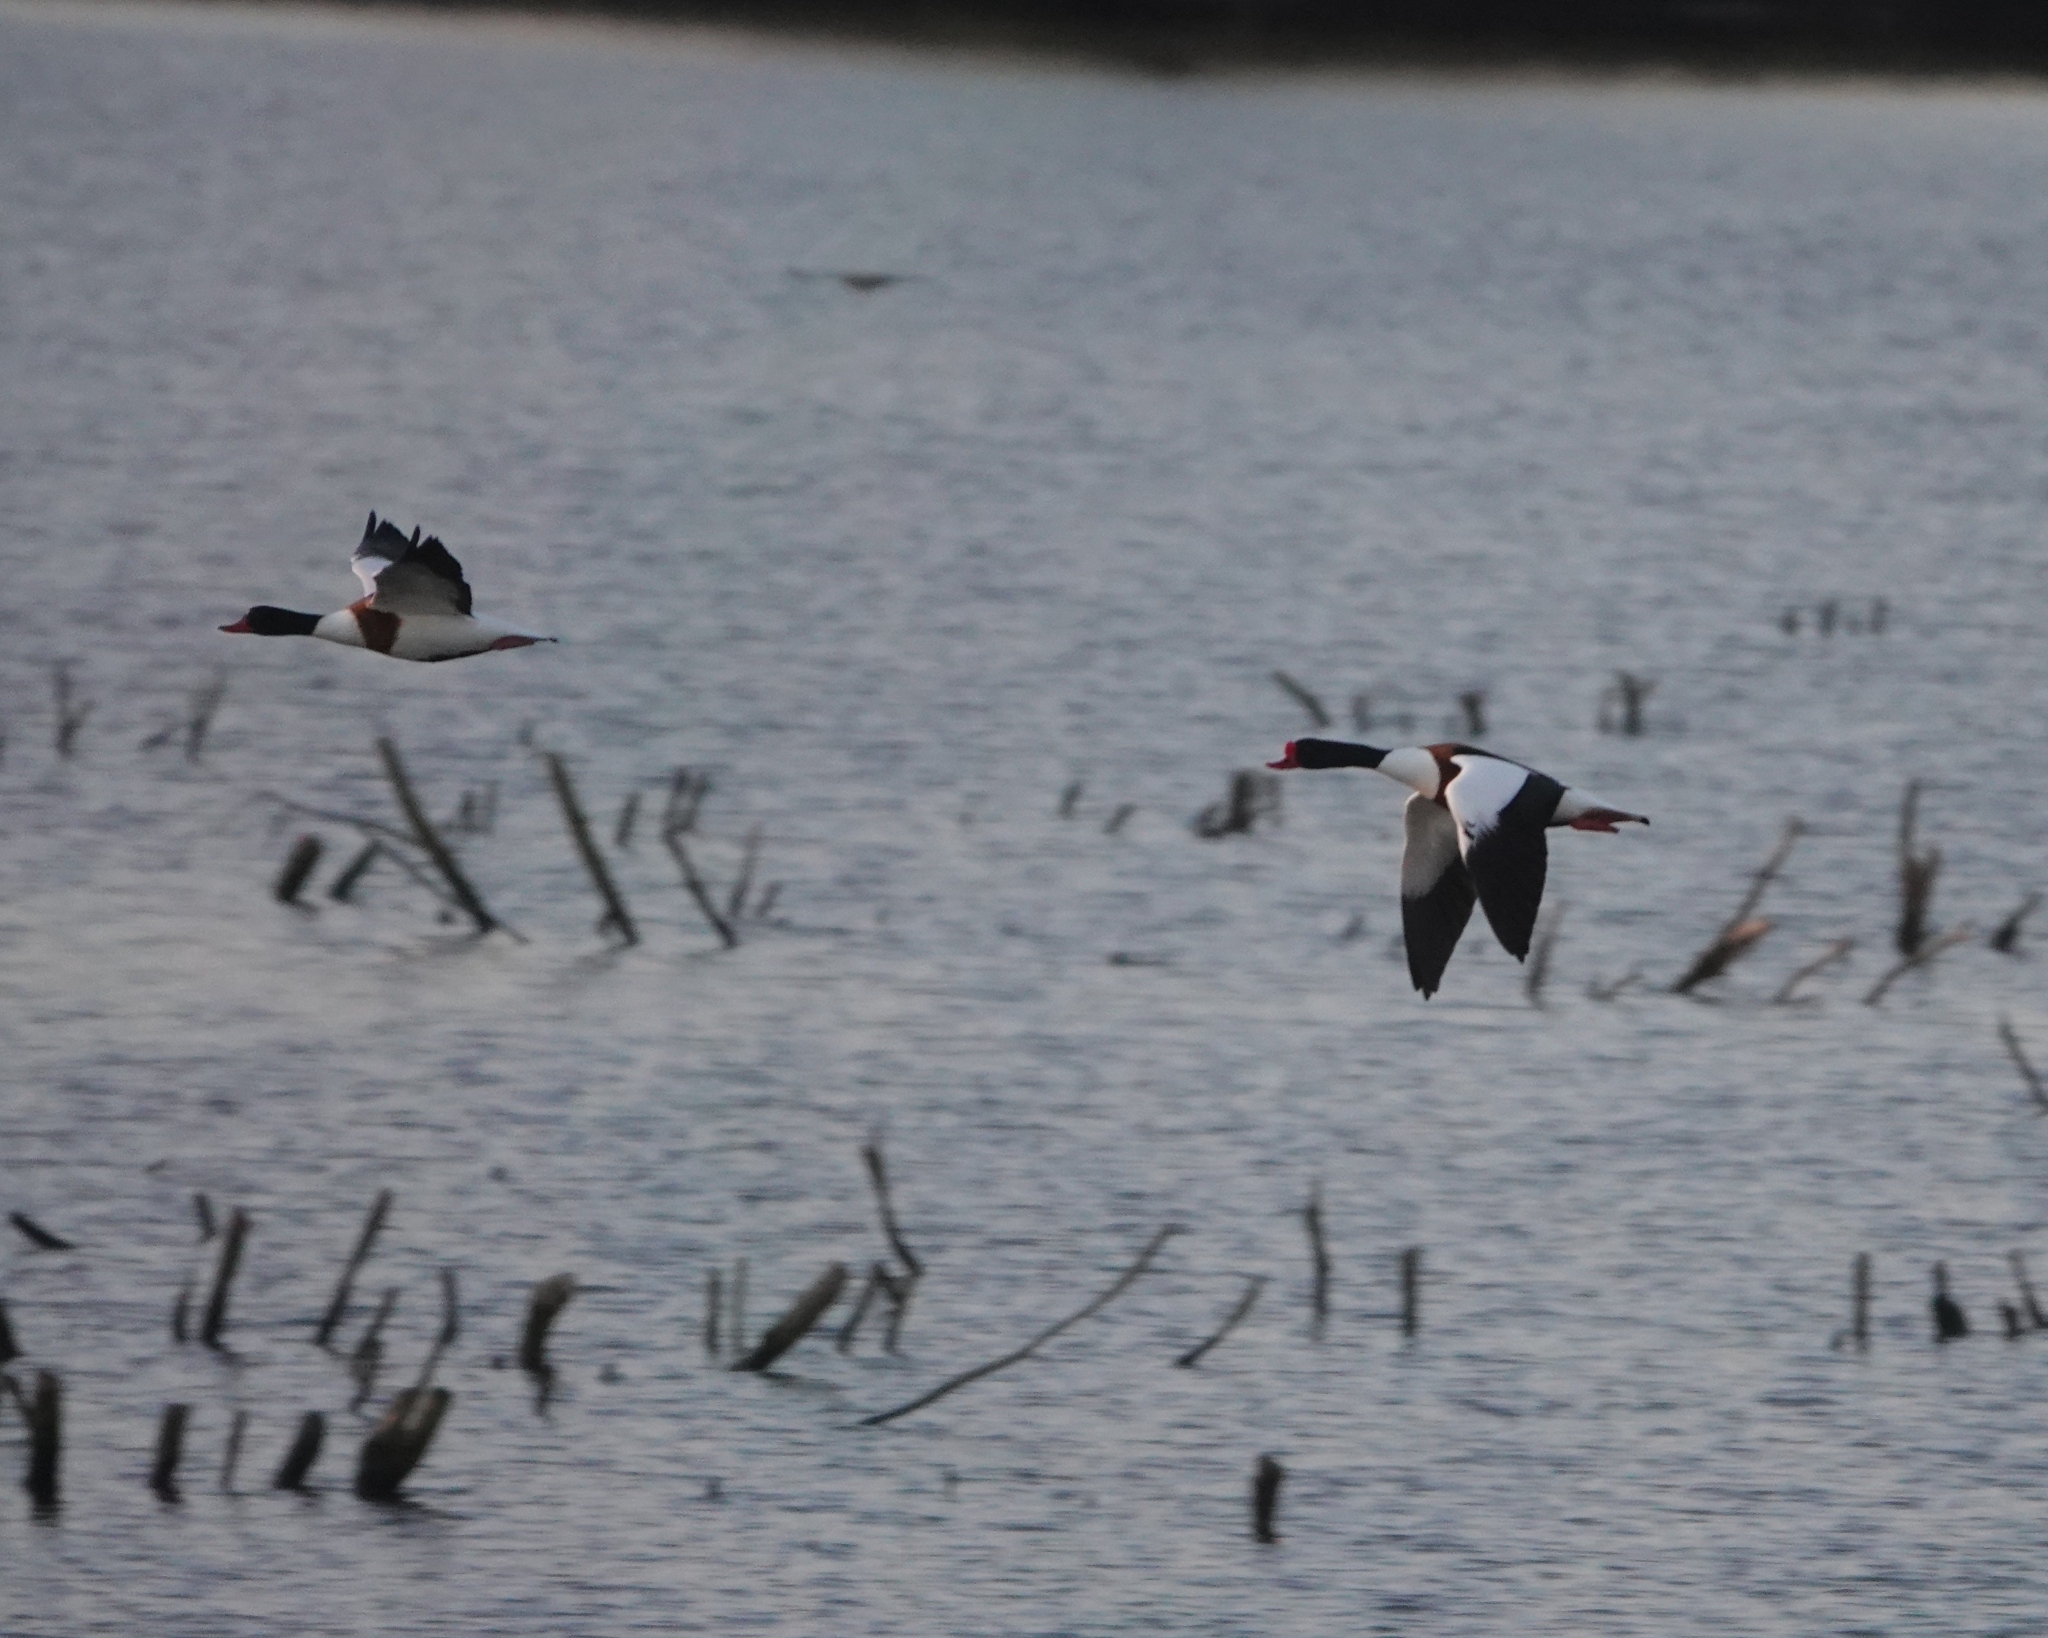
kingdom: Animalia
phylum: Chordata
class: Aves
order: Anseriformes
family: Anatidae
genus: Tadorna
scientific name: Tadorna tadorna
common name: Common shelduck
